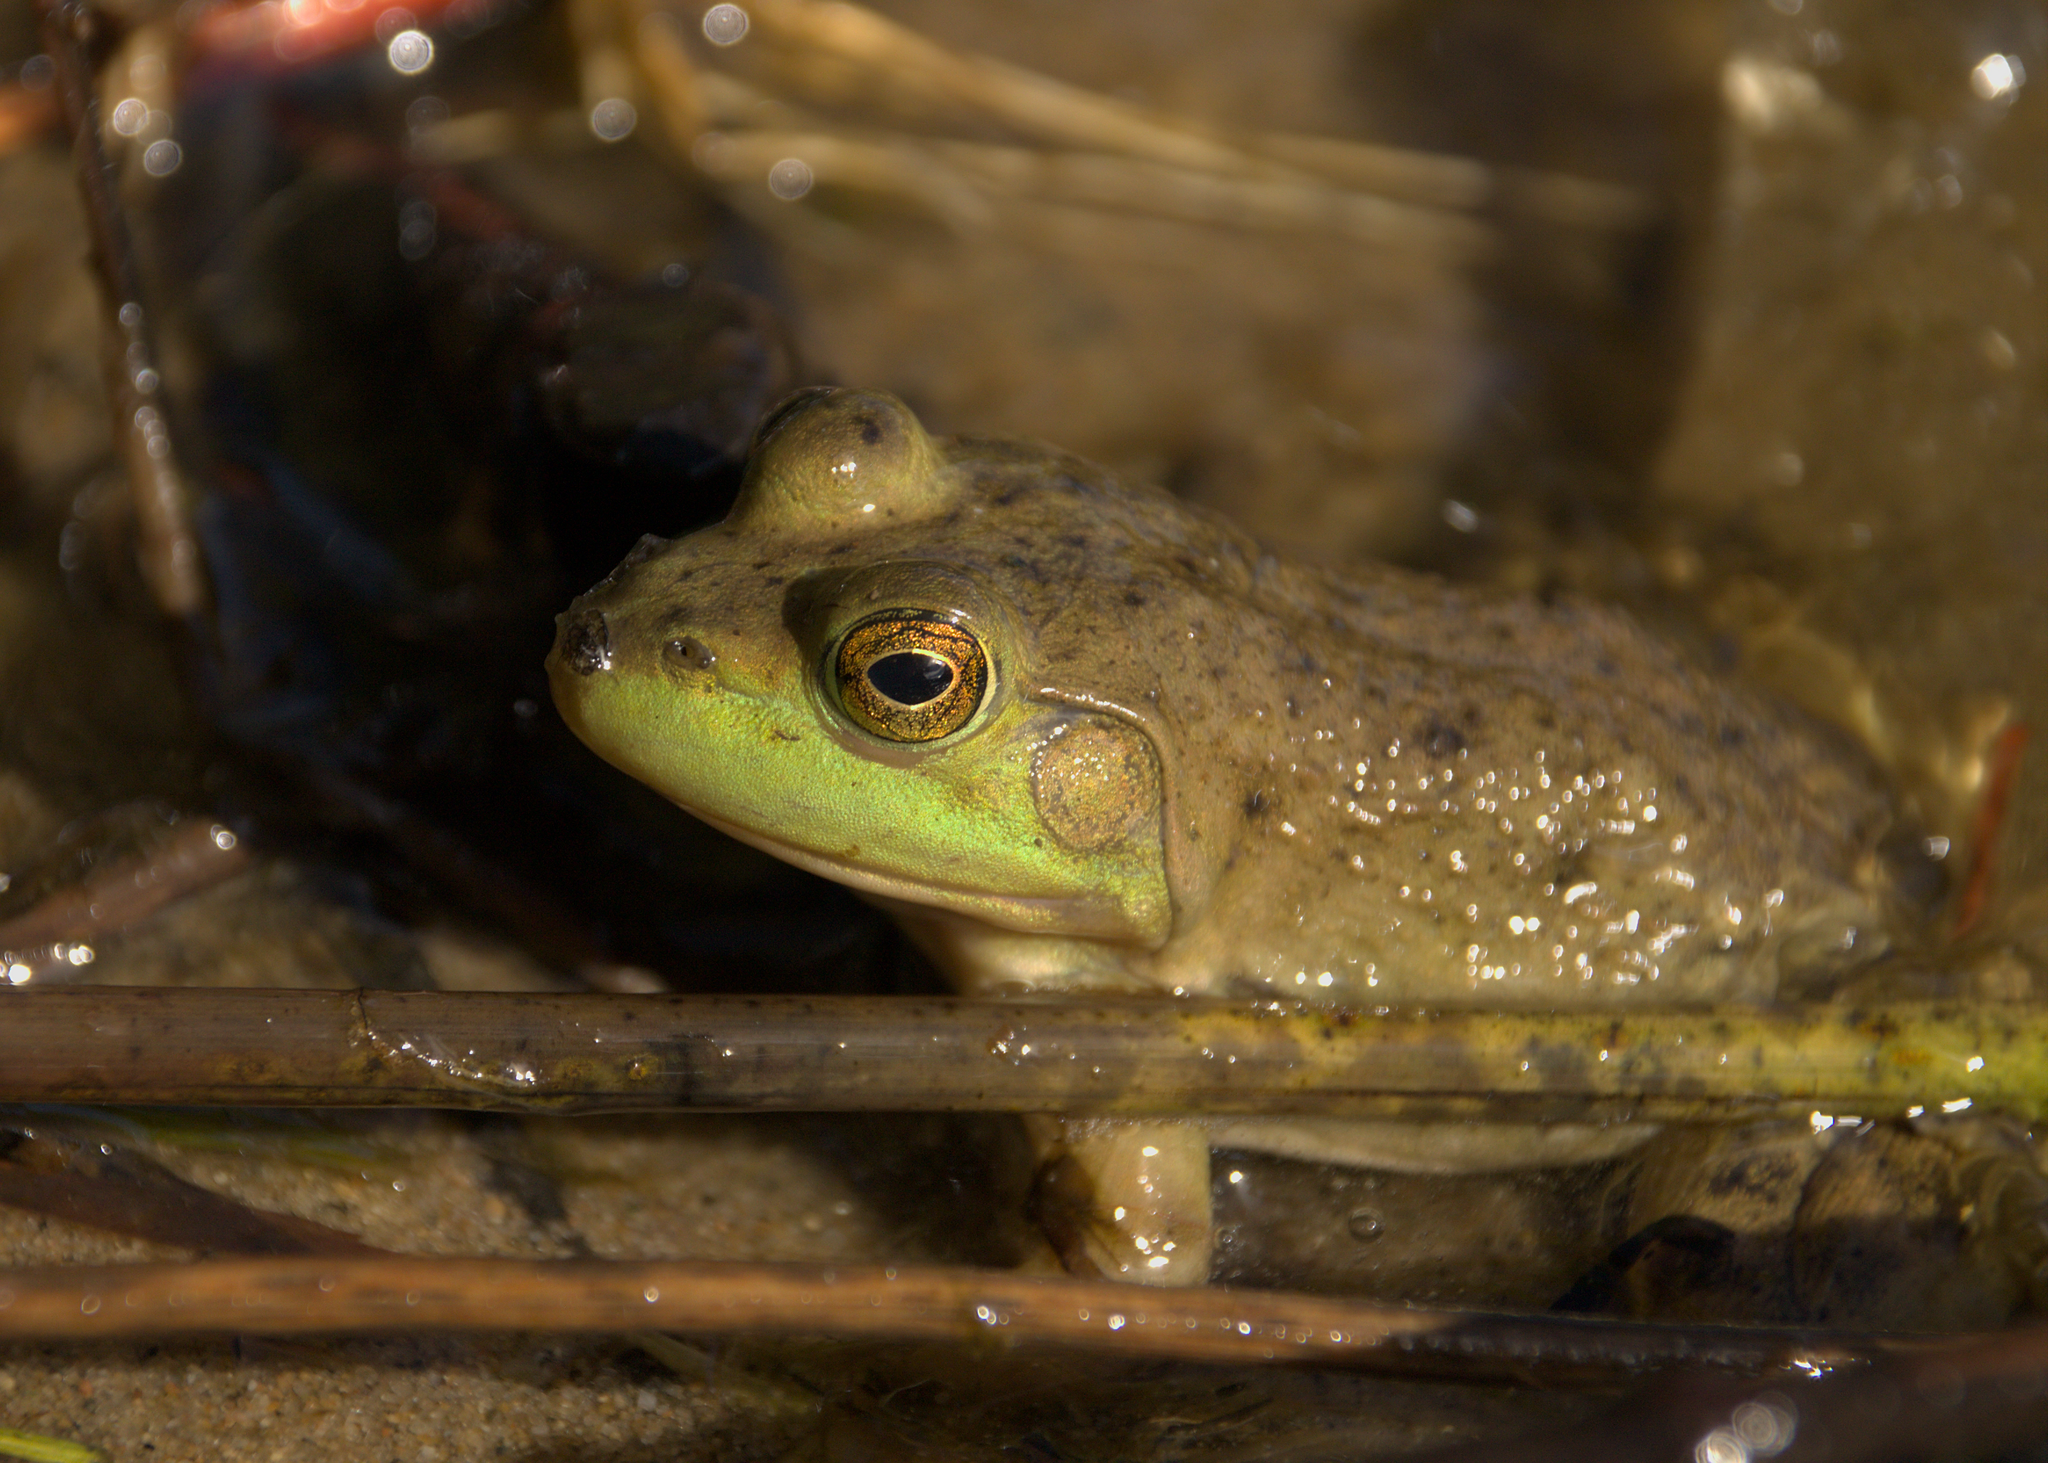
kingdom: Animalia
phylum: Chordata
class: Amphibia
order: Anura
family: Ranidae
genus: Lithobates
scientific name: Lithobates catesbeianus
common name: American bullfrog
